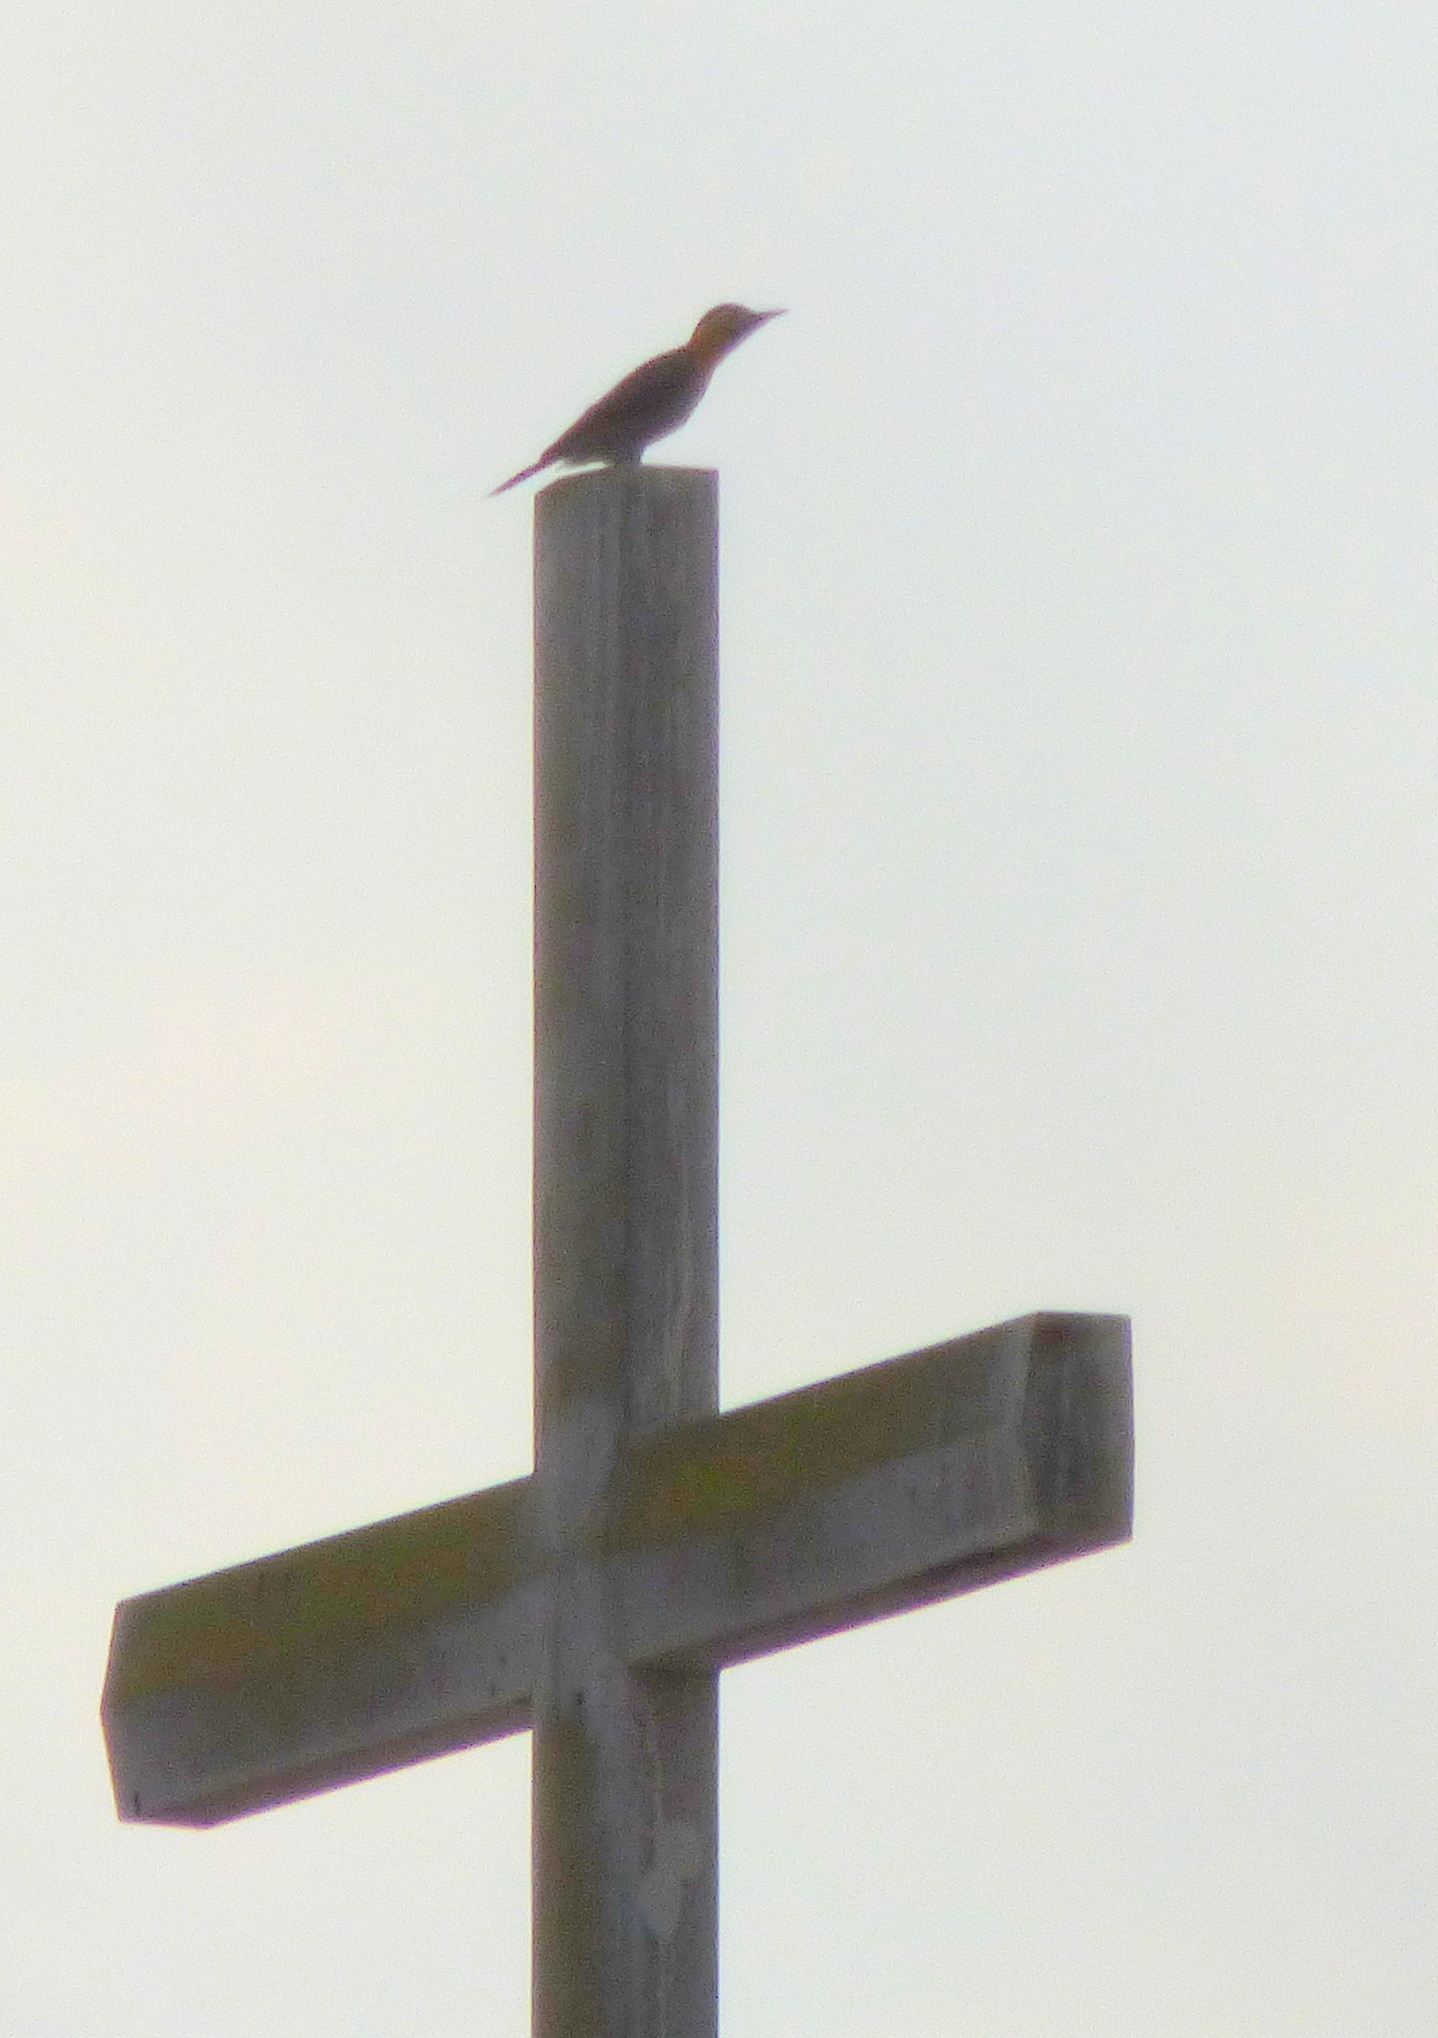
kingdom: Animalia
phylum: Chordata
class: Aves
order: Piciformes
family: Picidae
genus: Colaptes
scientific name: Colaptes campestris
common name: Campo flicker
